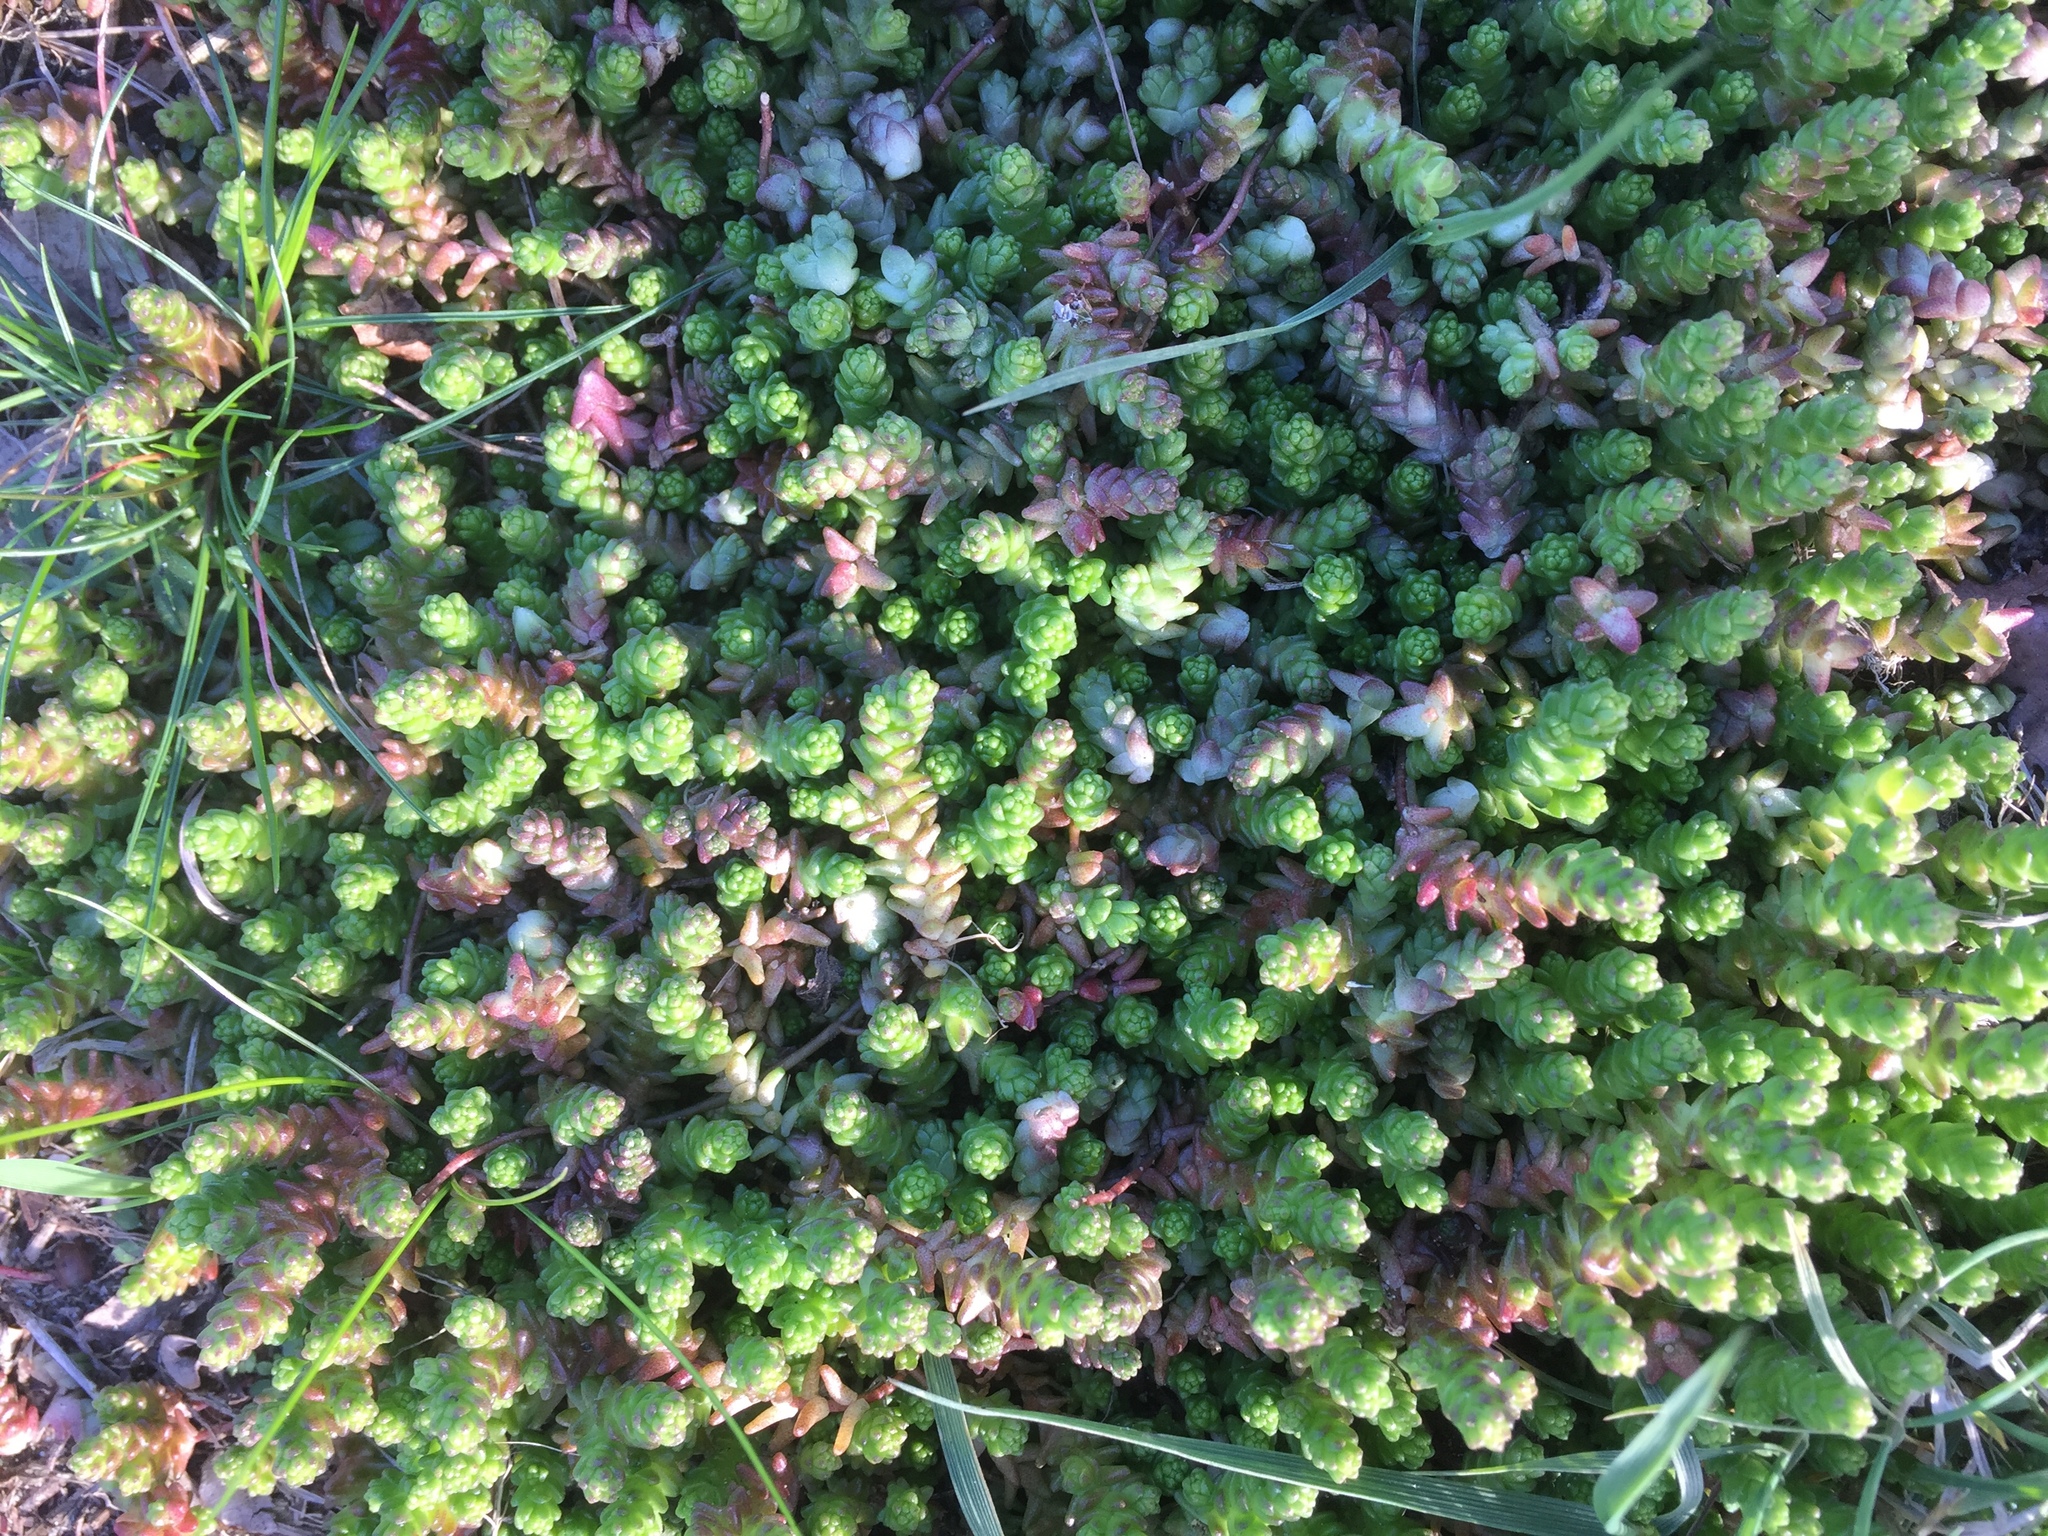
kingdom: Plantae
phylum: Tracheophyta
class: Magnoliopsida
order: Saxifragales
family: Crassulaceae
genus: Sedum
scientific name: Sedum acre
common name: Biting stonecrop
